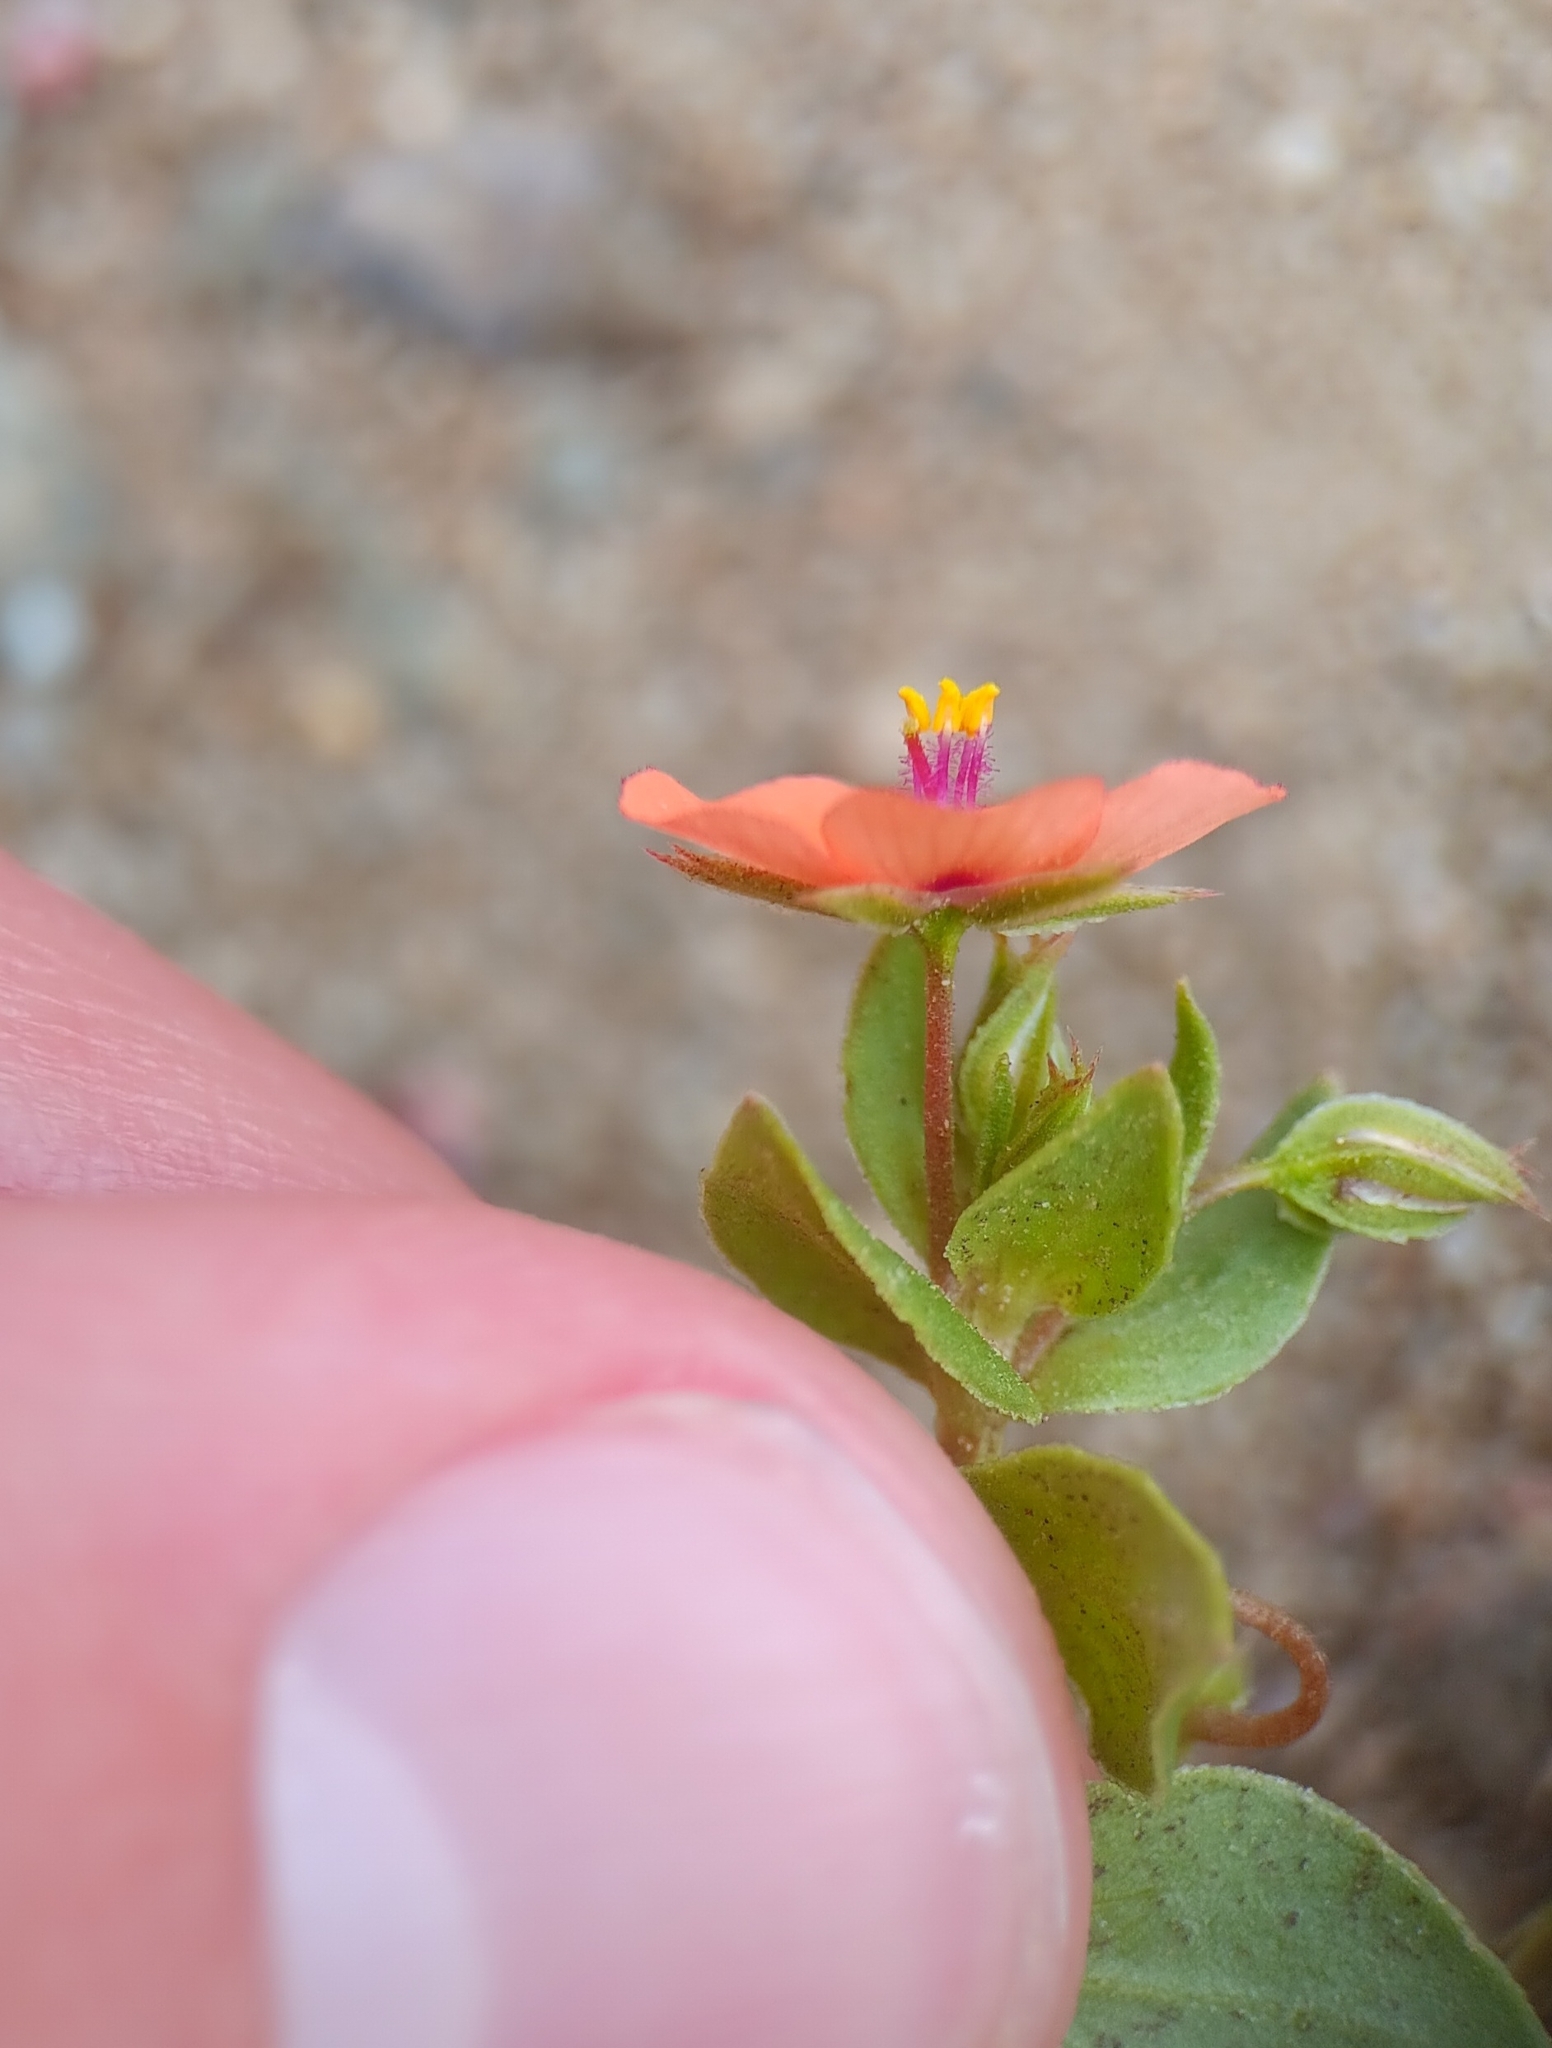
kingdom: Plantae
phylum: Tracheophyta
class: Magnoliopsida
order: Ericales
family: Primulaceae
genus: Lysimachia
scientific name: Lysimachia arvensis
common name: Scarlet pimpernel
